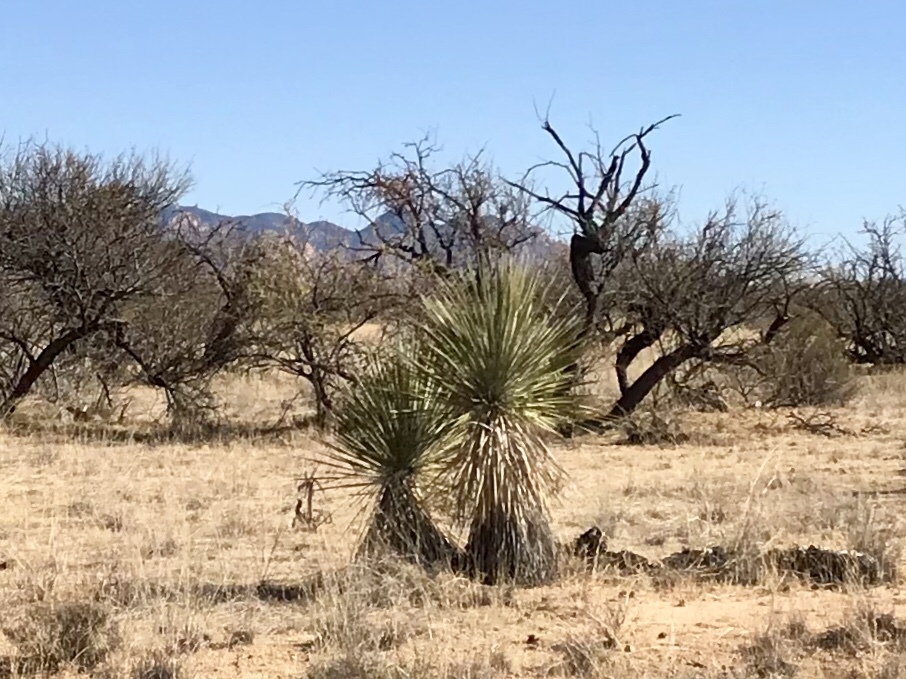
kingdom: Plantae
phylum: Tracheophyta
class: Liliopsida
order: Asparagales
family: Asparagaceae
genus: Yucca
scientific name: Yucca elata
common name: Palmella
